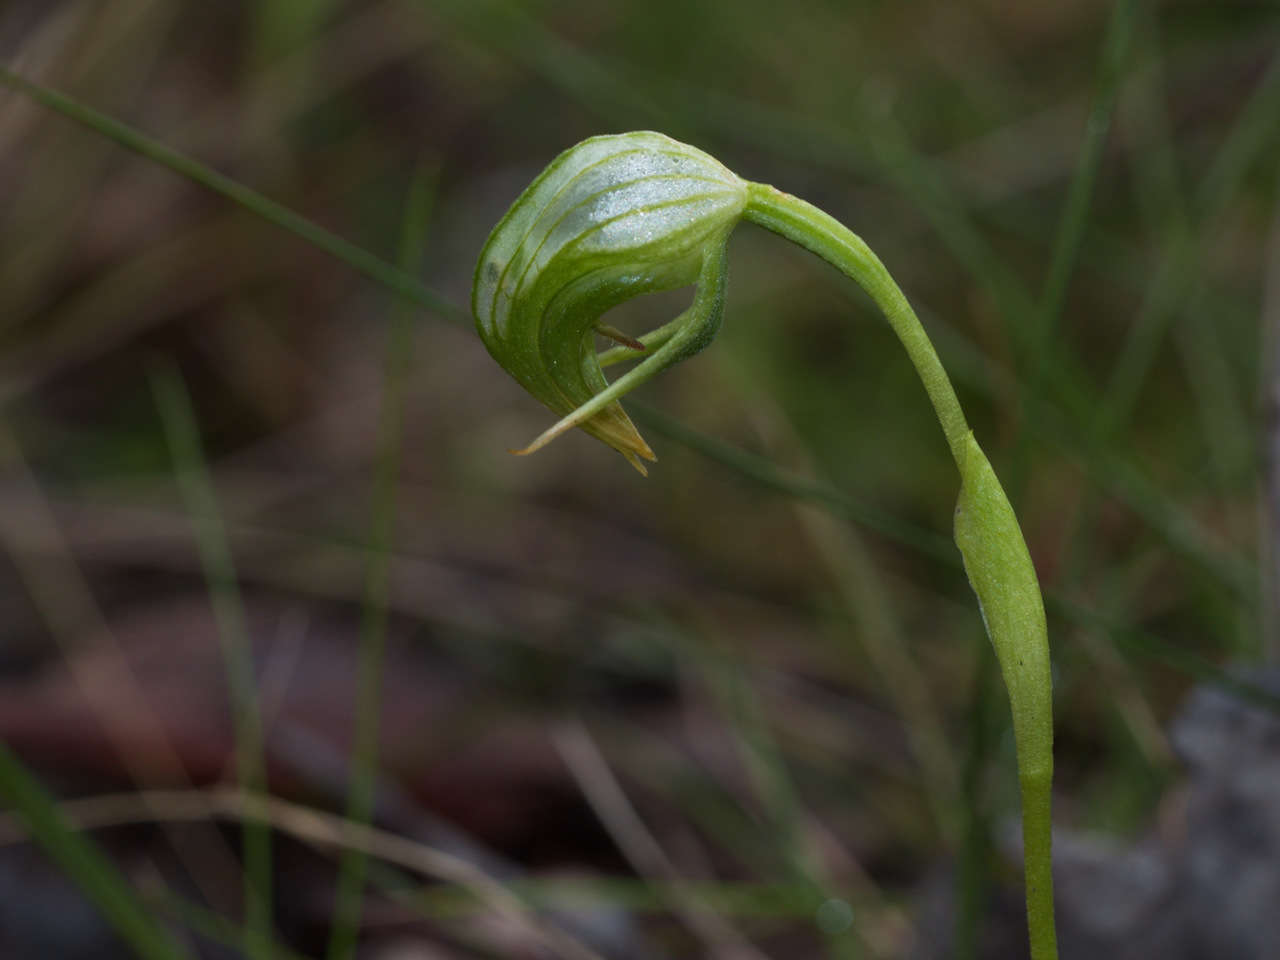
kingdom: Plantae
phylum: Tracheophyta
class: Liliopsida
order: Asparagales
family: Orchidaceae
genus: Pterostylis
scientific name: Pterostylis nutans
